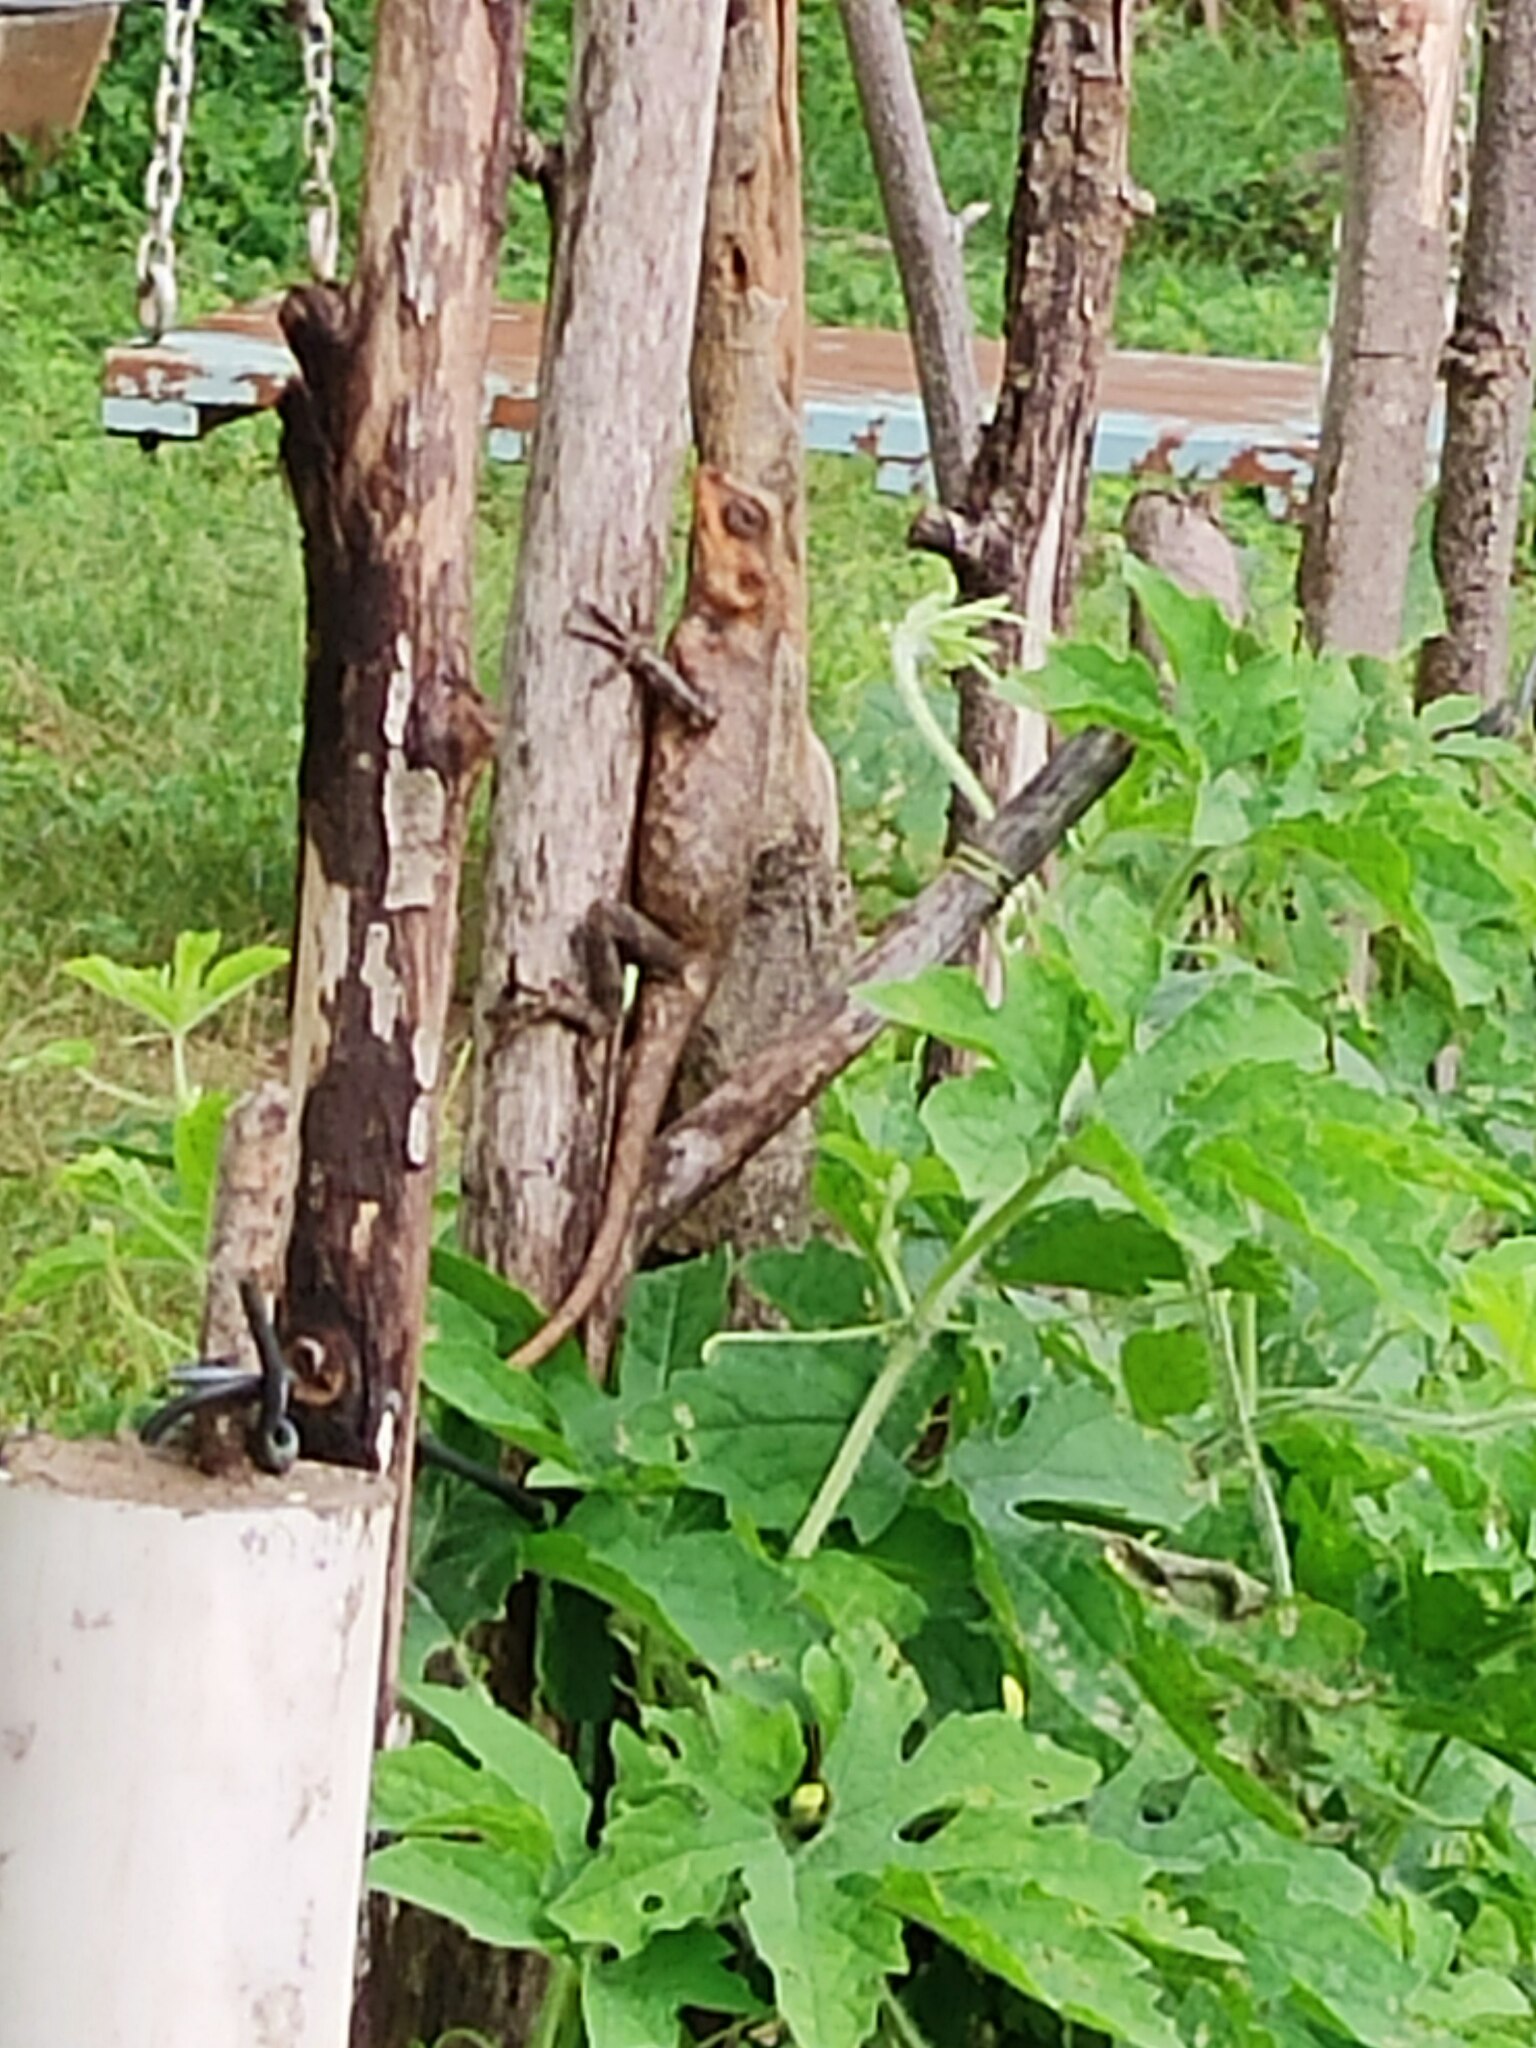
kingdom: Animalia
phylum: Chordata
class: Squamata
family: Agamidae
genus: Calotes
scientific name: Calotes versicolor
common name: Oriental garden lizard
